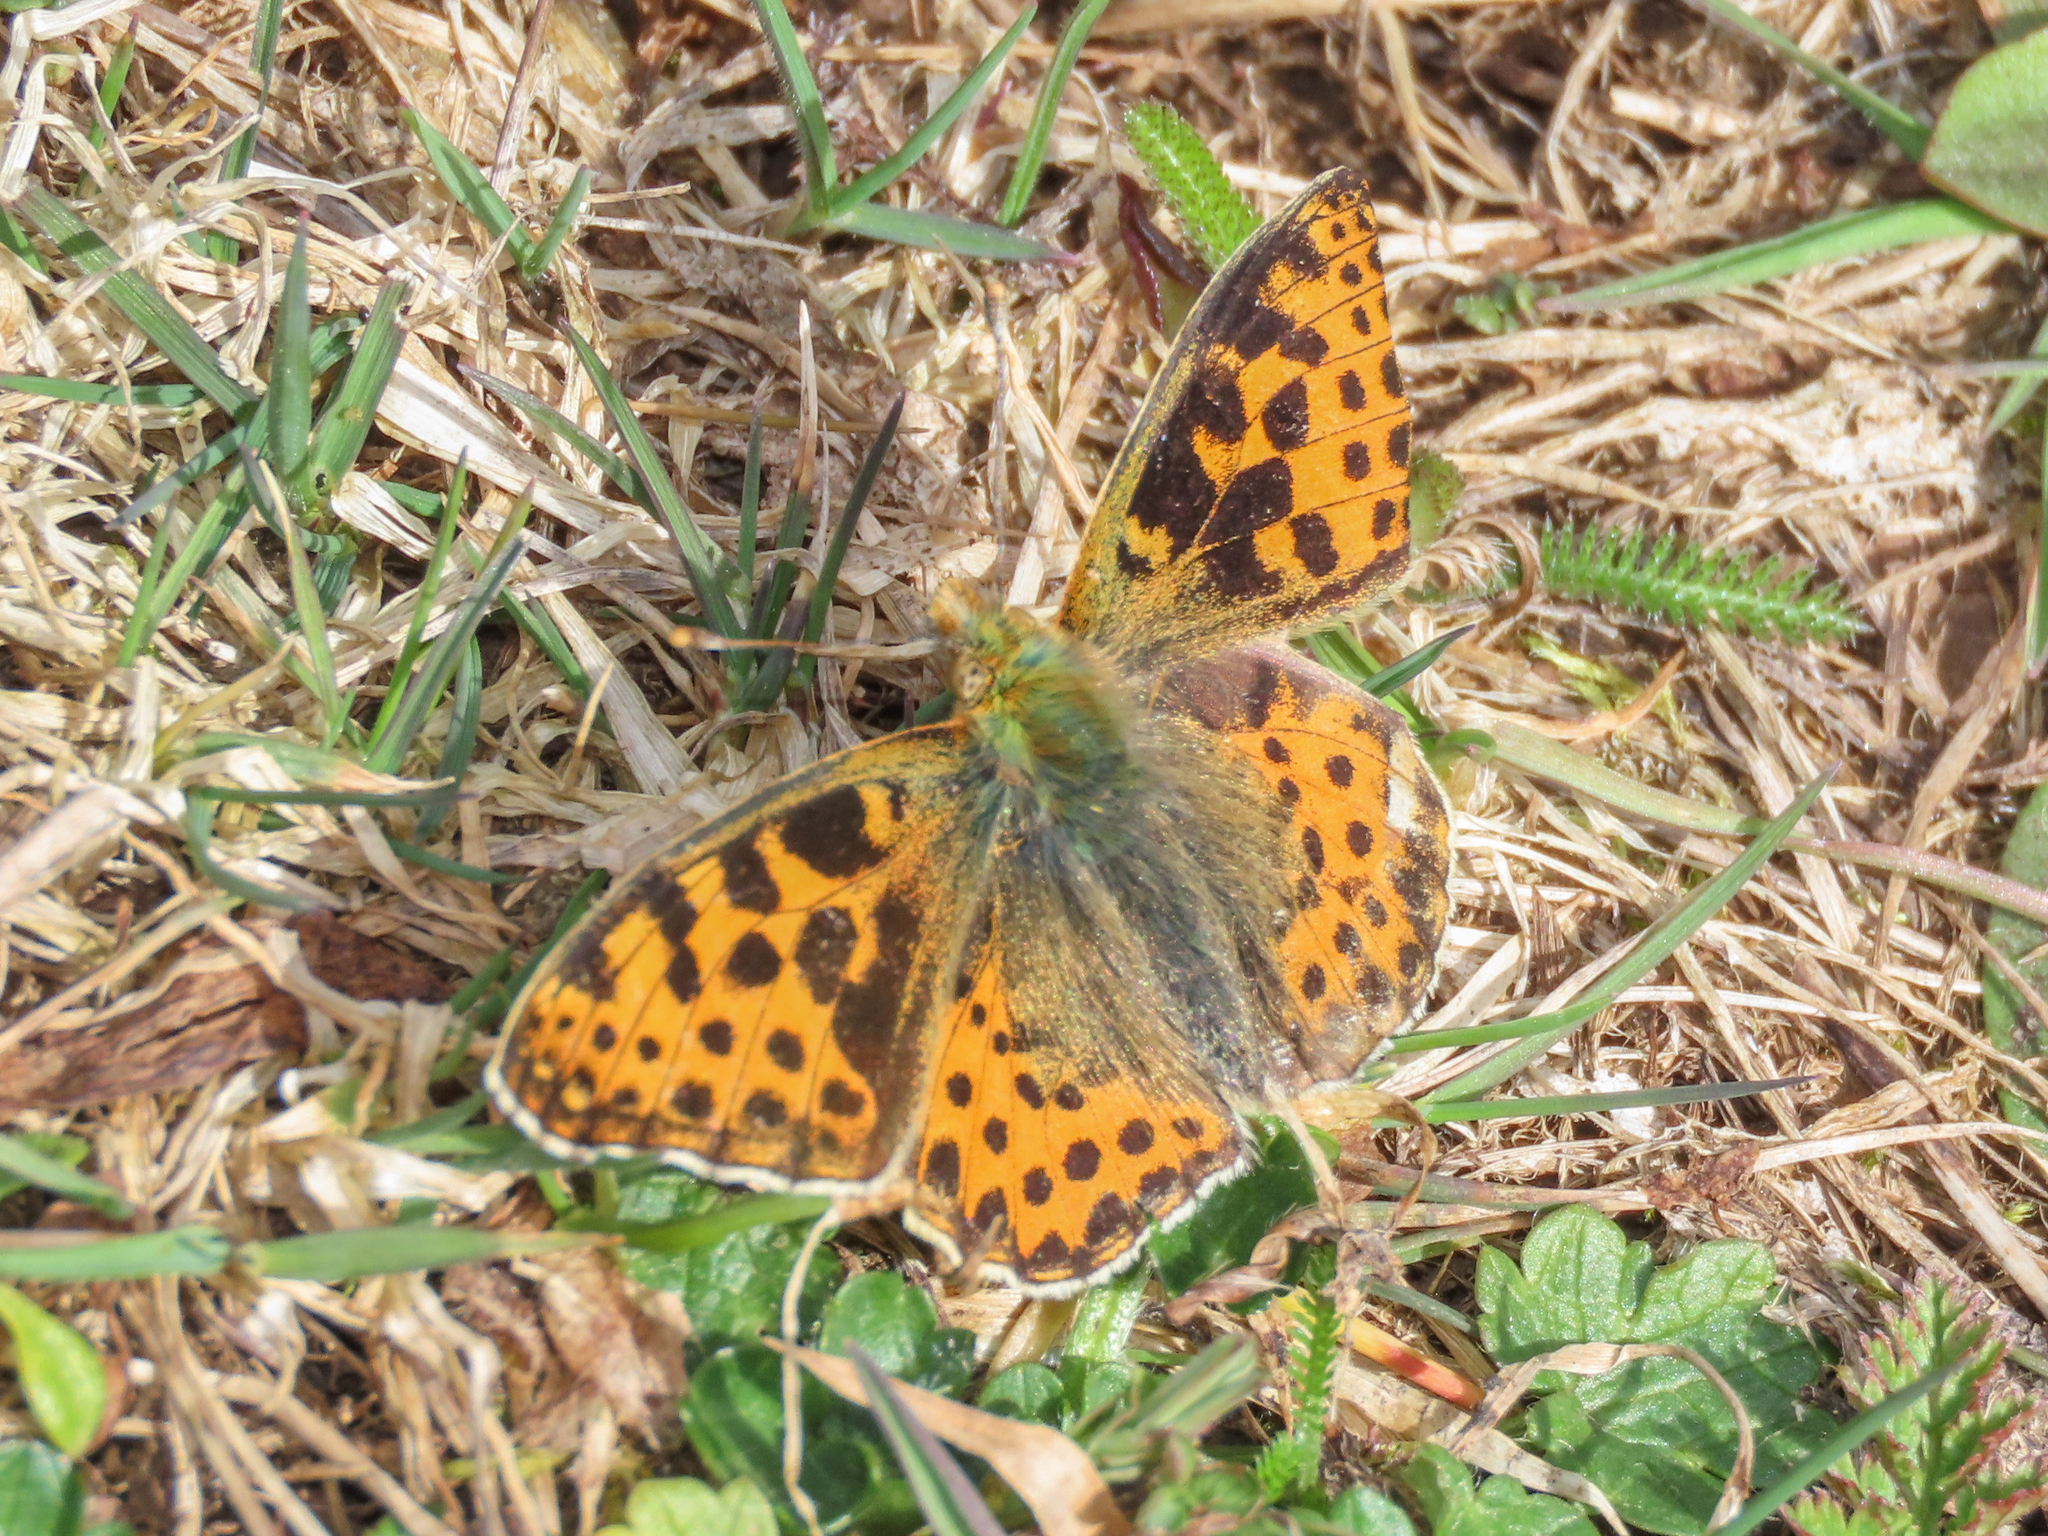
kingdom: Animalia
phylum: Arthropoda
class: Insecta
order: Lepidoptera
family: Nymphalidae
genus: Issoria
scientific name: Issoria lathonia
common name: Queen of spain fritillary
